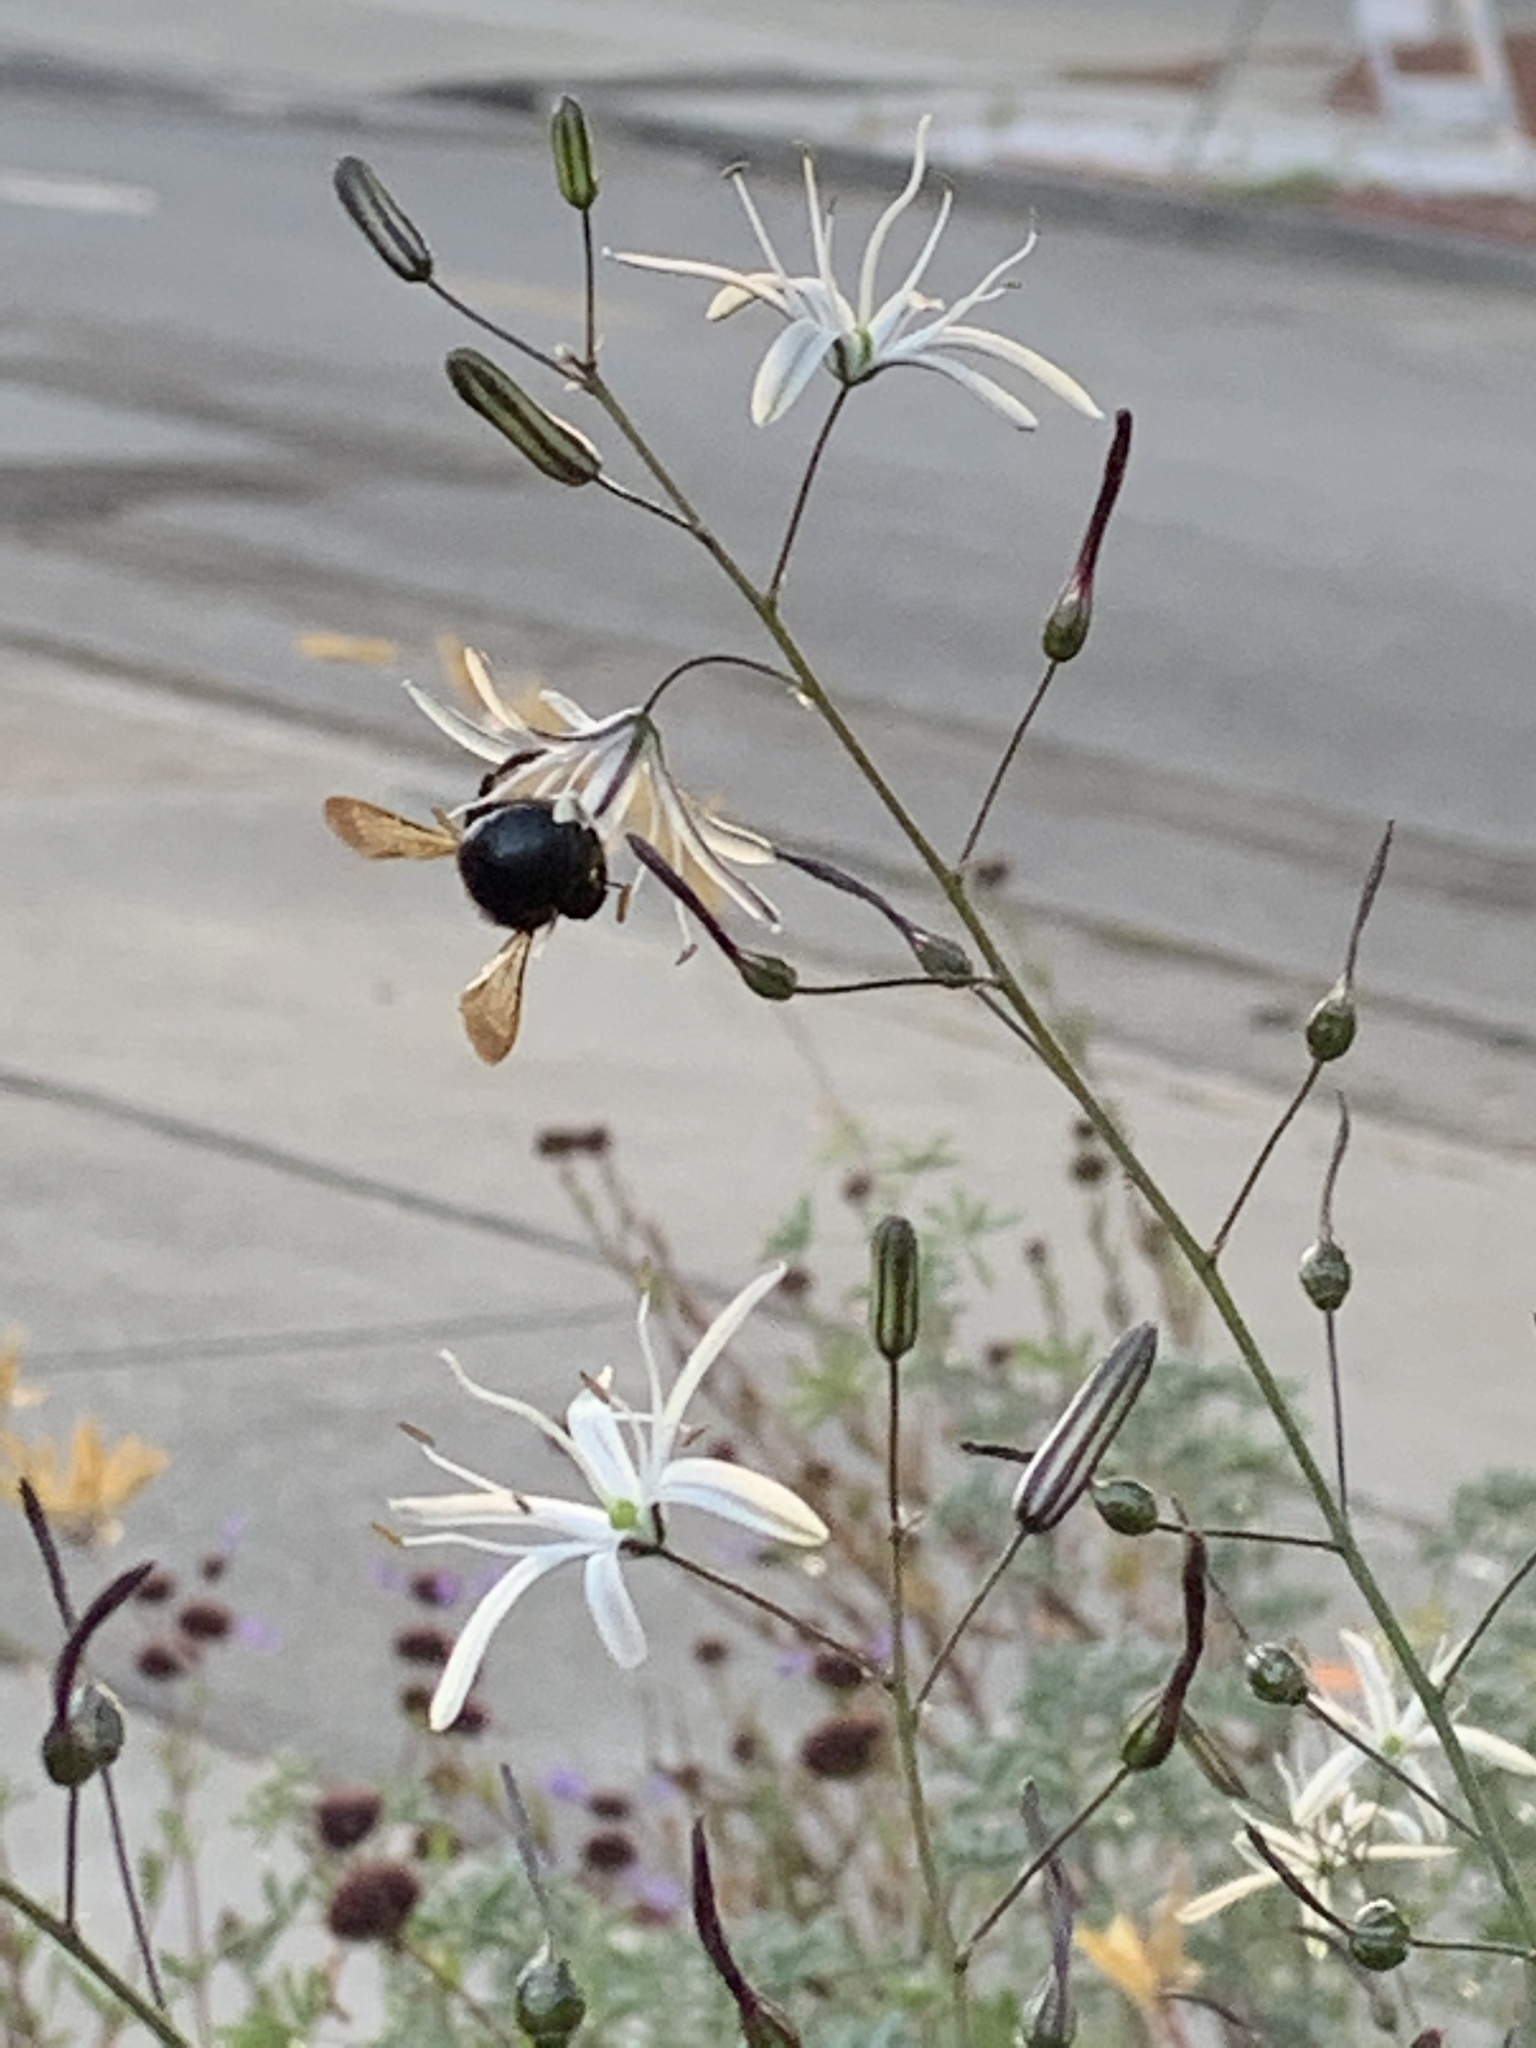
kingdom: Animalia
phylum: Arthropoda
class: Insecta
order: Hymenoptera
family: Apidae
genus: Xylocopa
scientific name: Xylocopa tabaniformis
